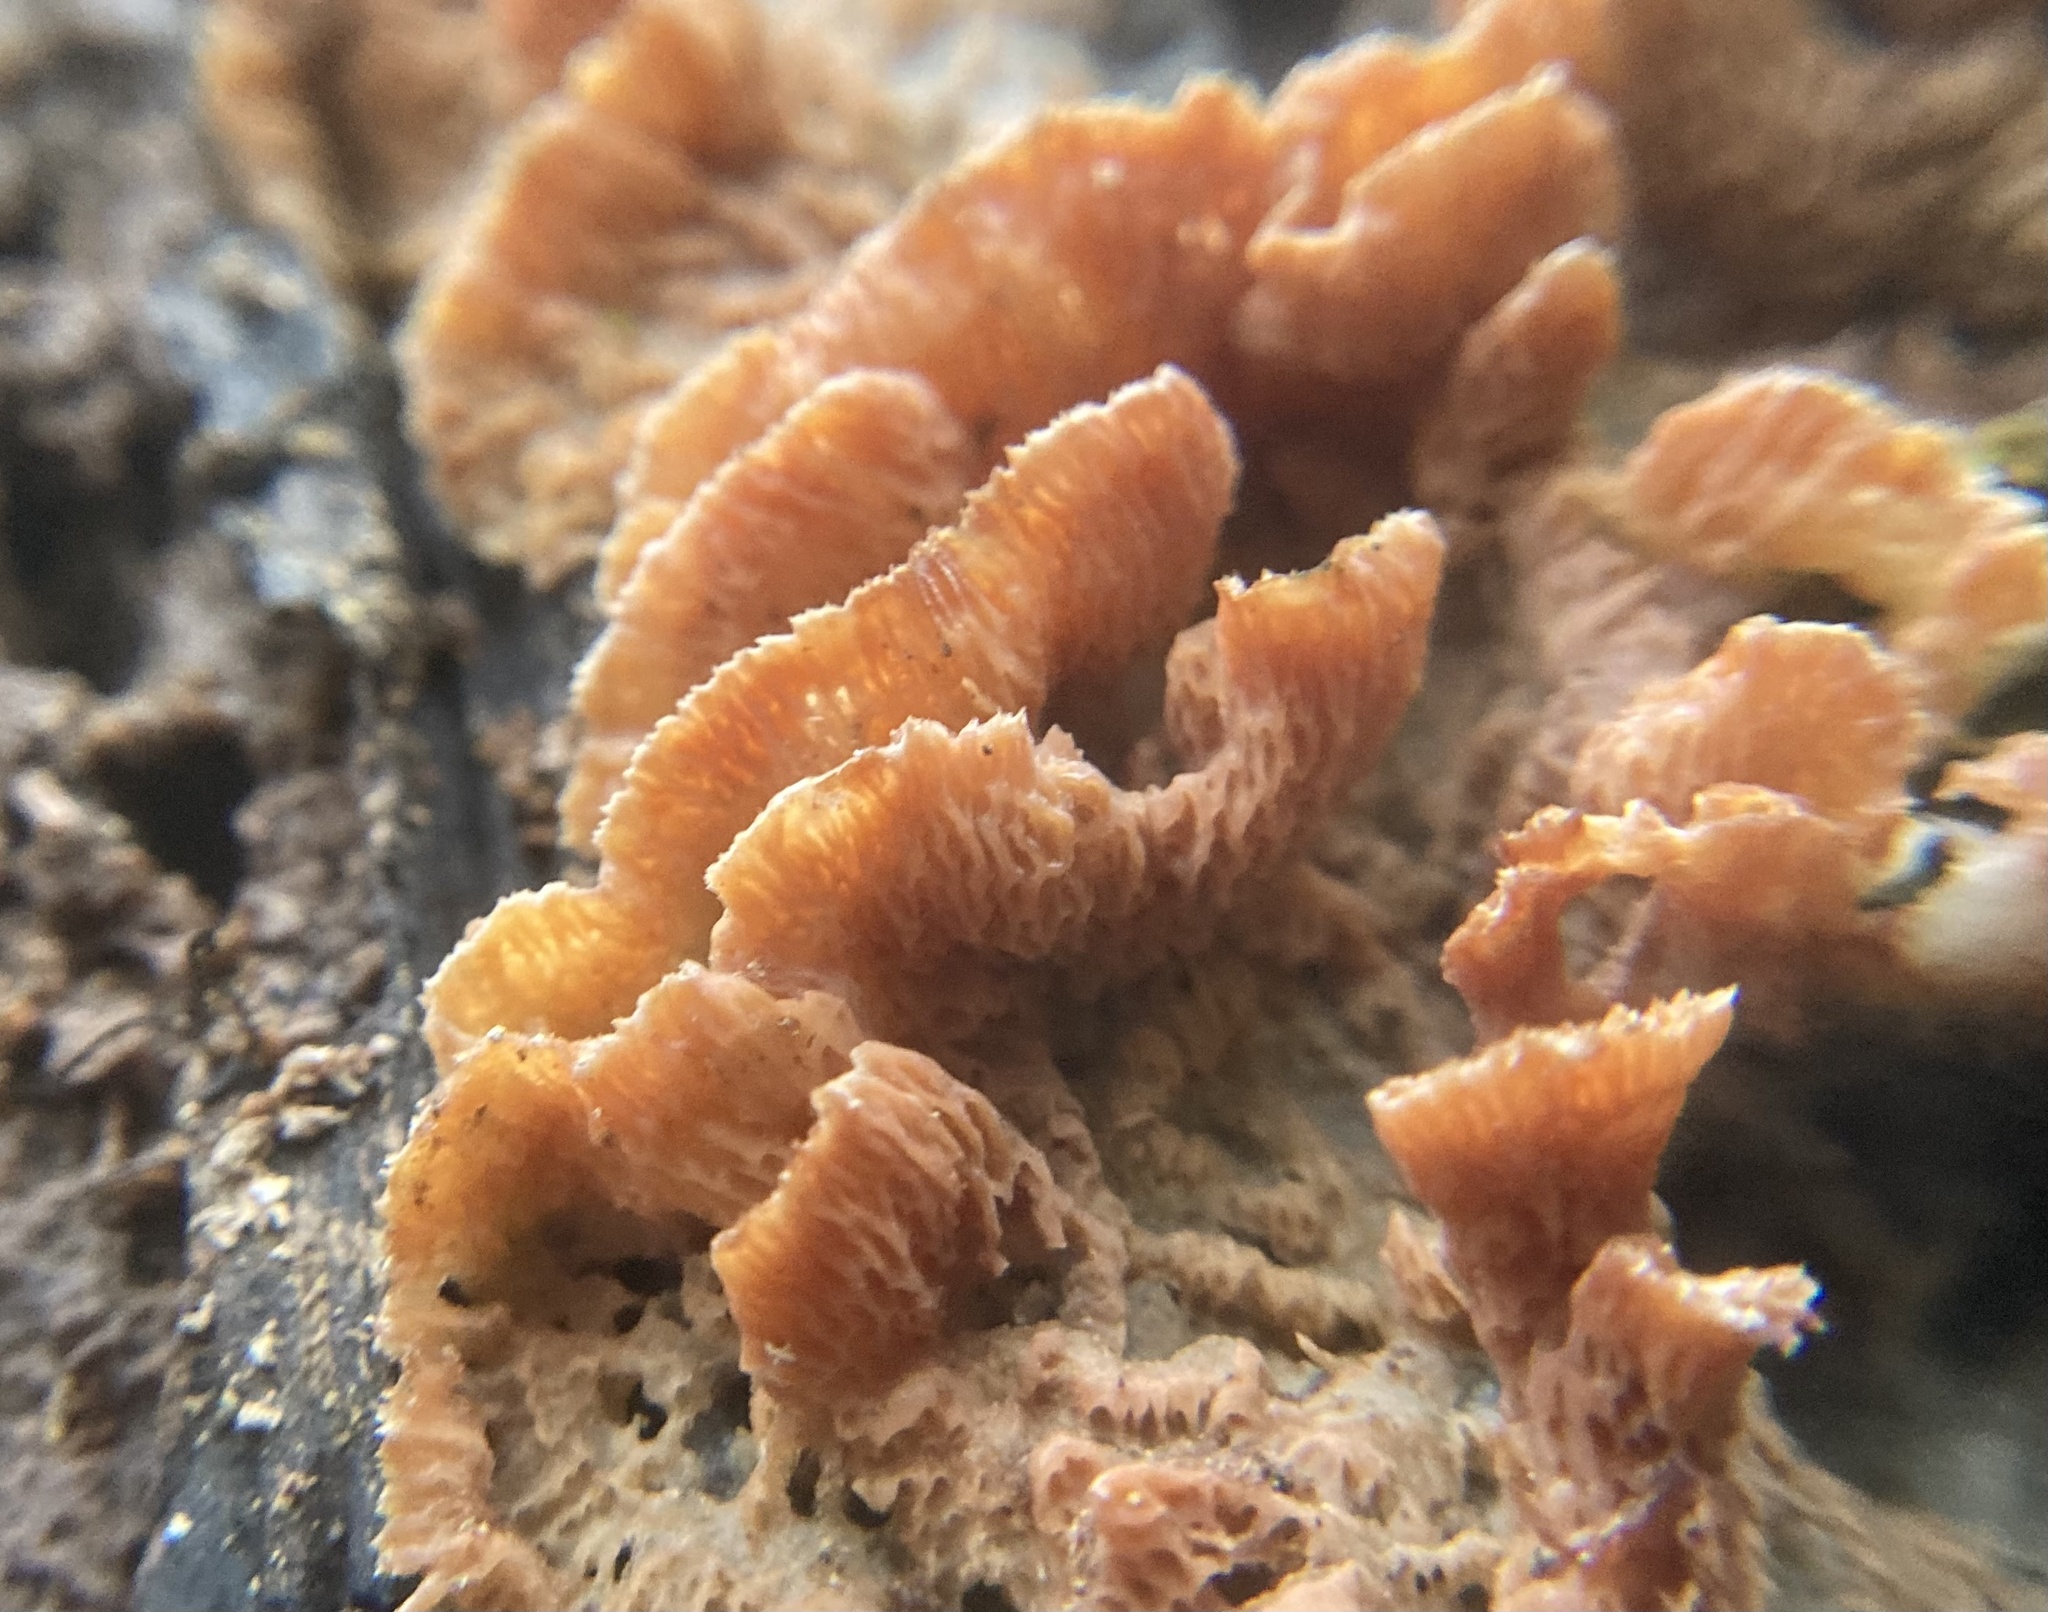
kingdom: Fungi
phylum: Basidiomycota
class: Agaricomycetes
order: Polyporales
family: Meruliaceae
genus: Phlebia
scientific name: Phlebia tremellosa
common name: Jelly rot
